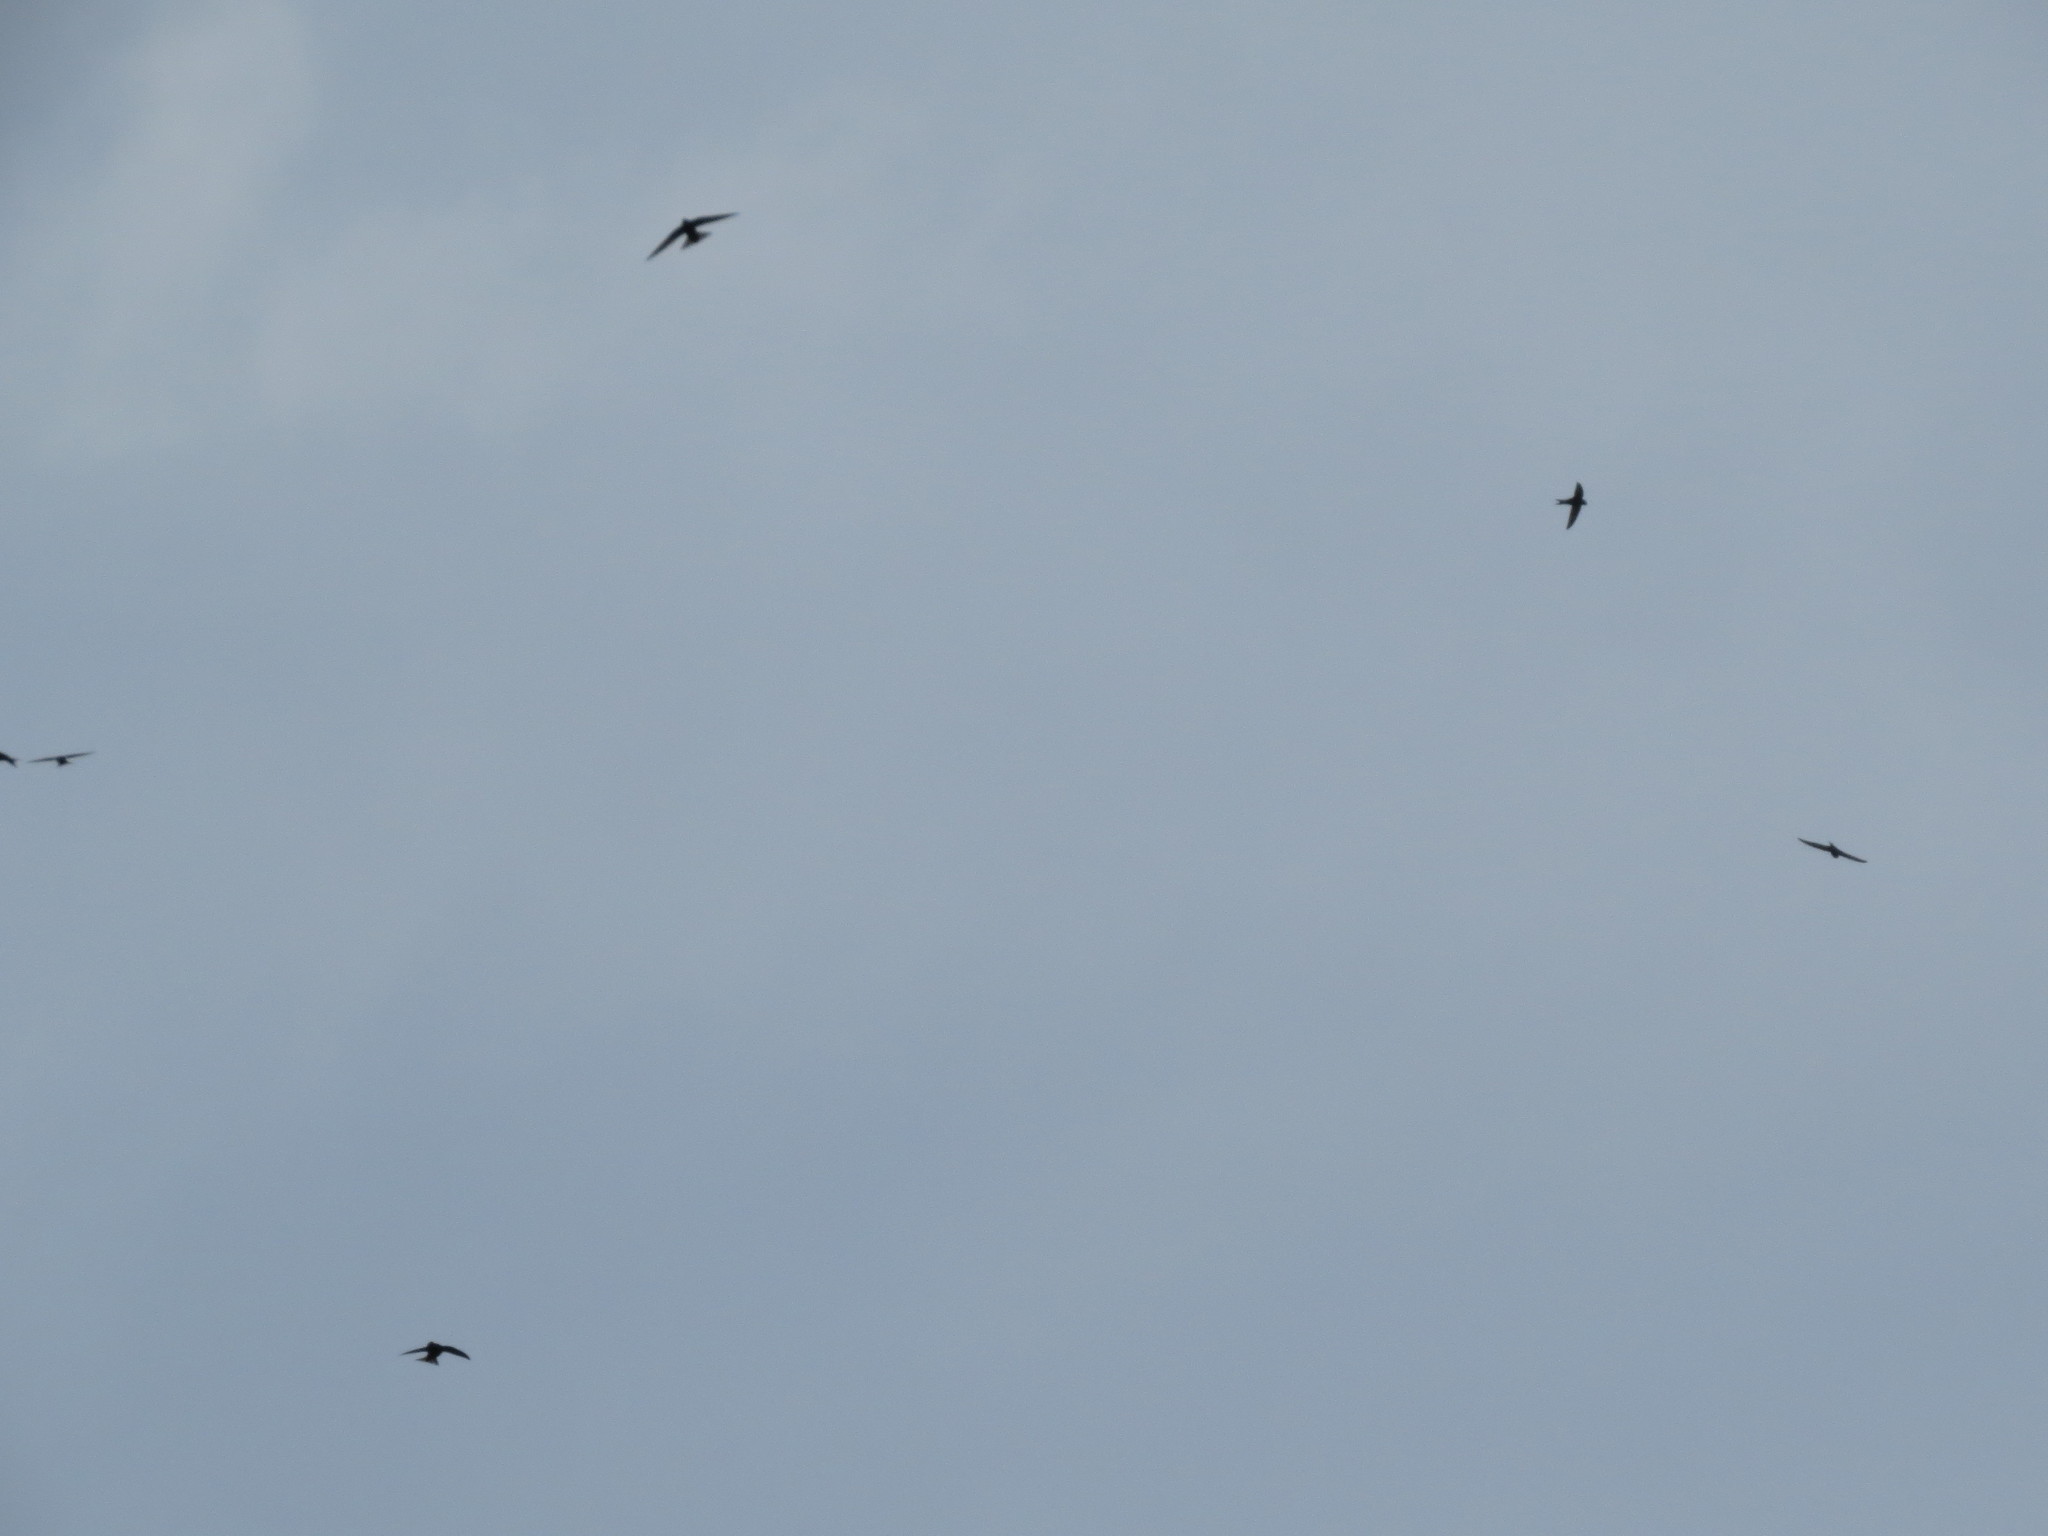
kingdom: Animalia
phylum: Chordata
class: Aves
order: Apodiformes
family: Apodidae
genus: Apus
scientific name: Apus apus
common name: Common swift
